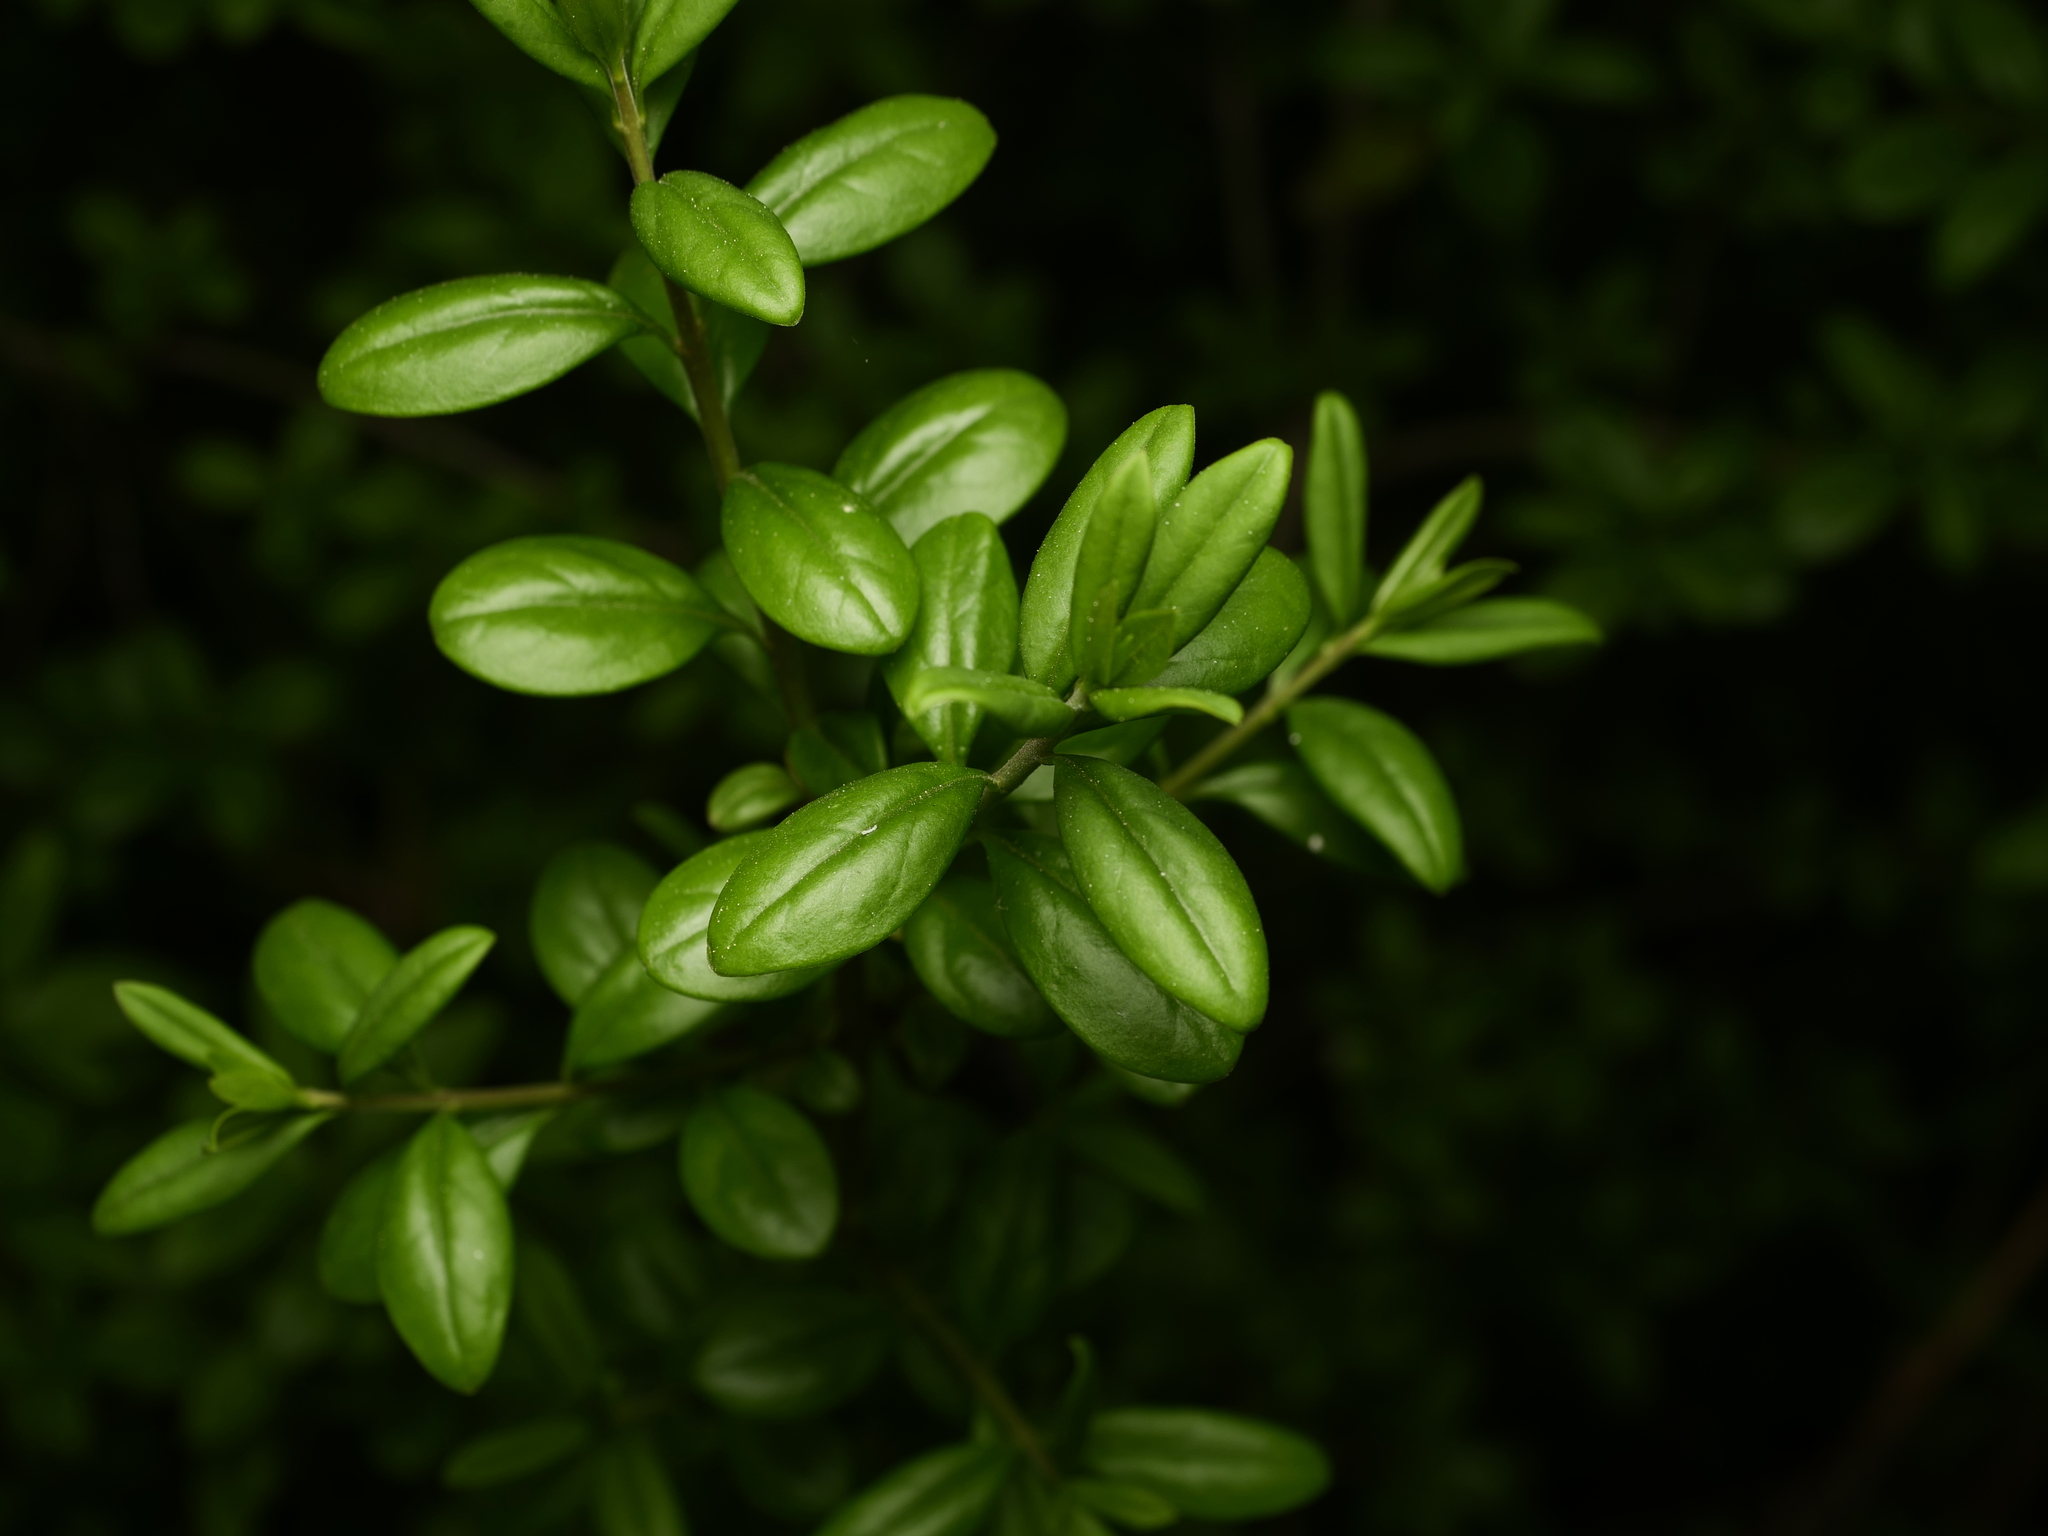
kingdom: Plantae
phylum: Tracheophyta
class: Magnoliopsida
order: Buxales
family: Buxaceae
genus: Buxus
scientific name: Buxus sempervirens
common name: Box
